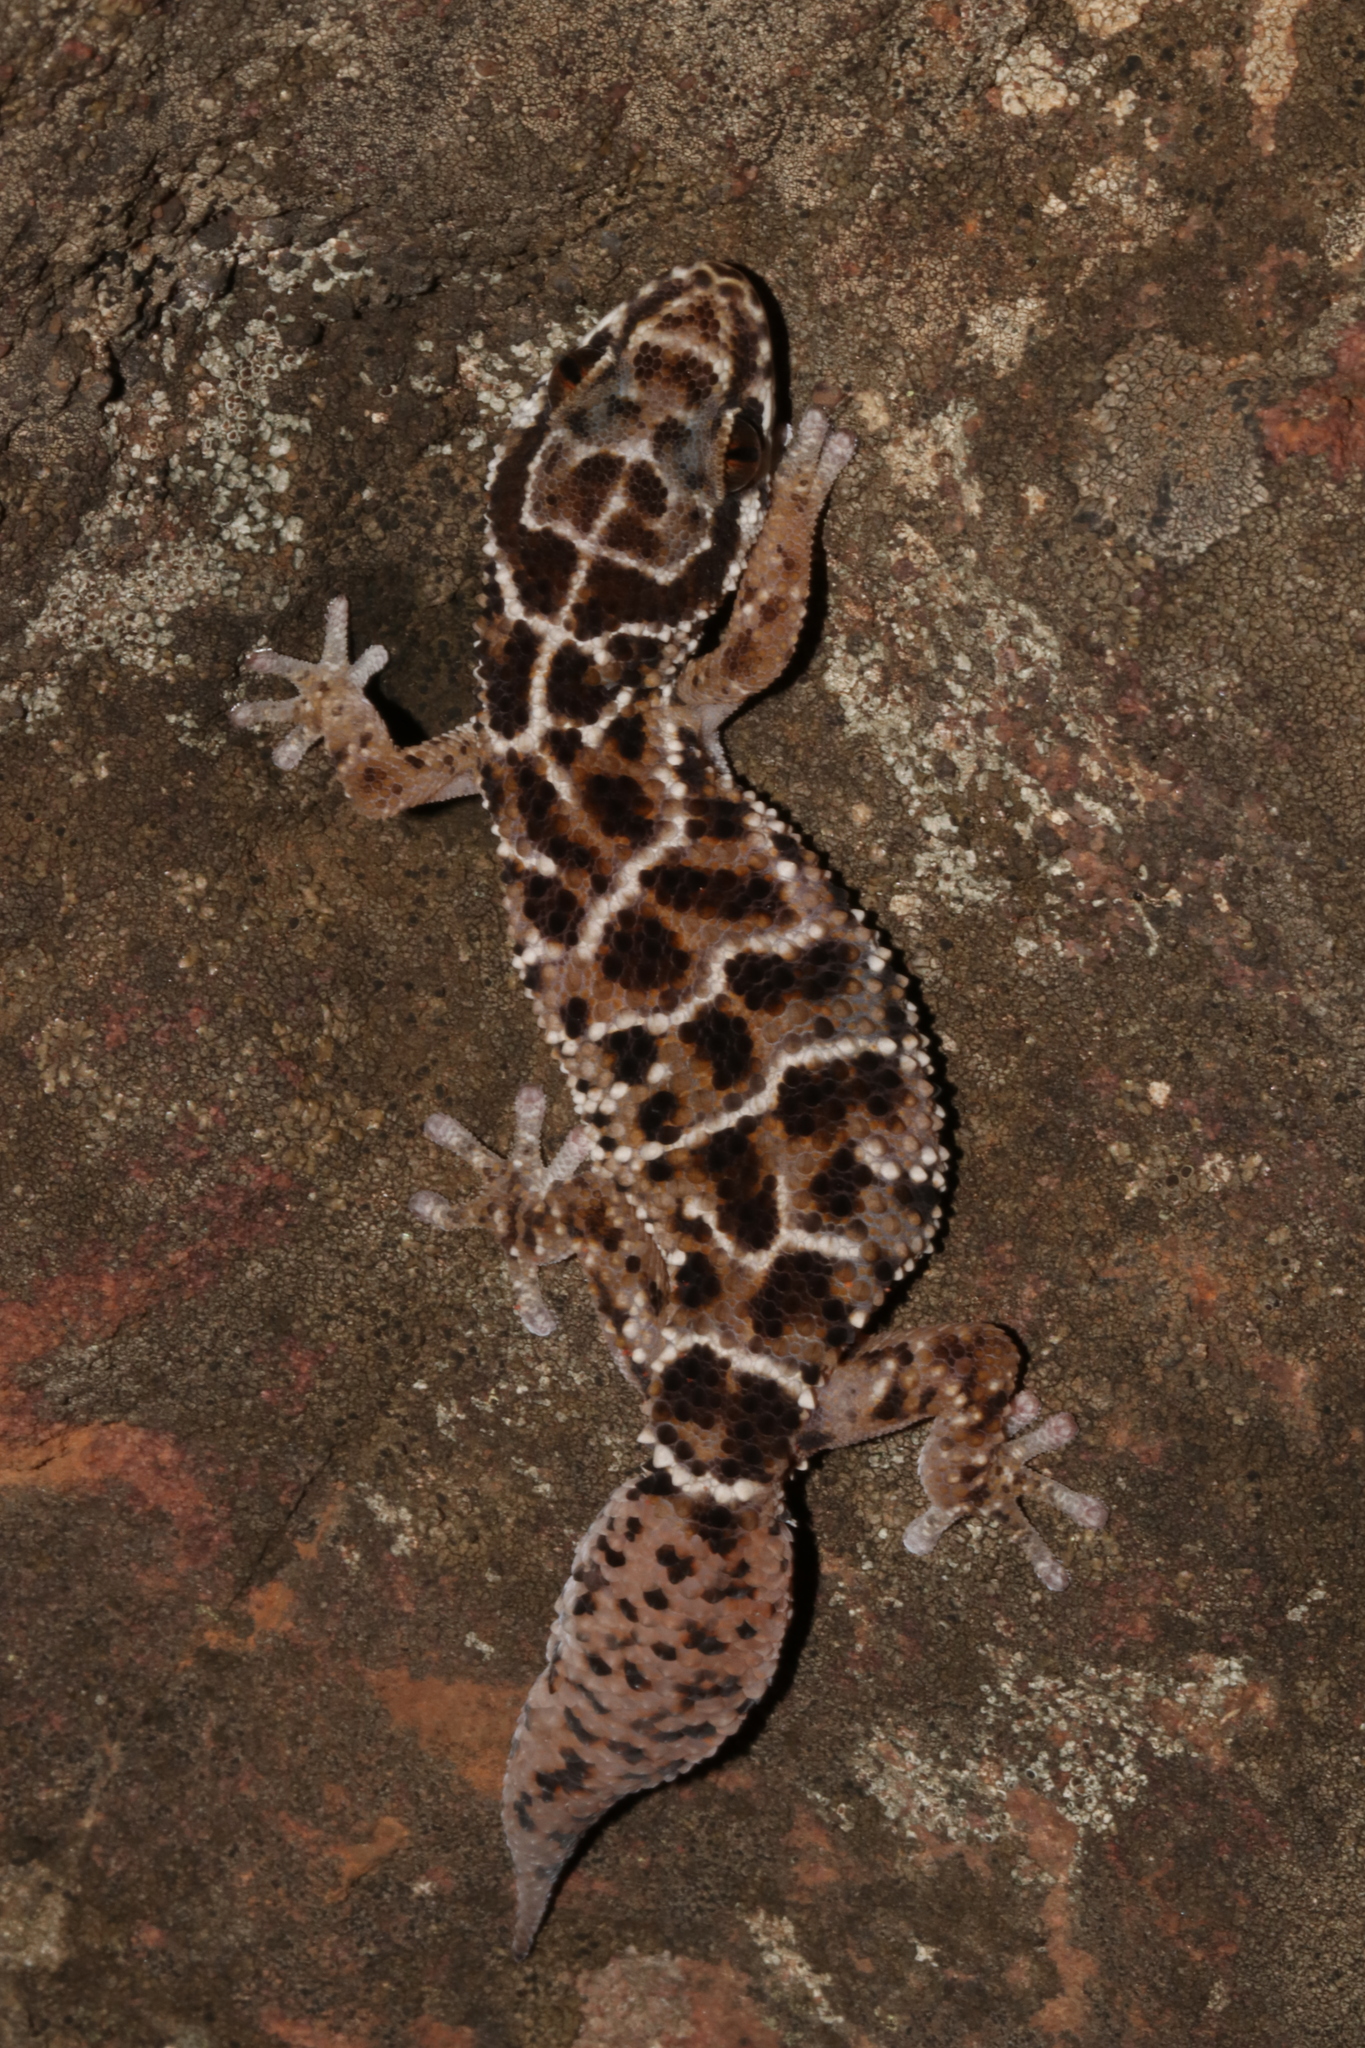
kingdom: Animalia
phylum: Chordata
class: Squamata
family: Gekkonidae
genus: Pachydactylus
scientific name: Pachydactylus vansoni
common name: Van son's gecko
